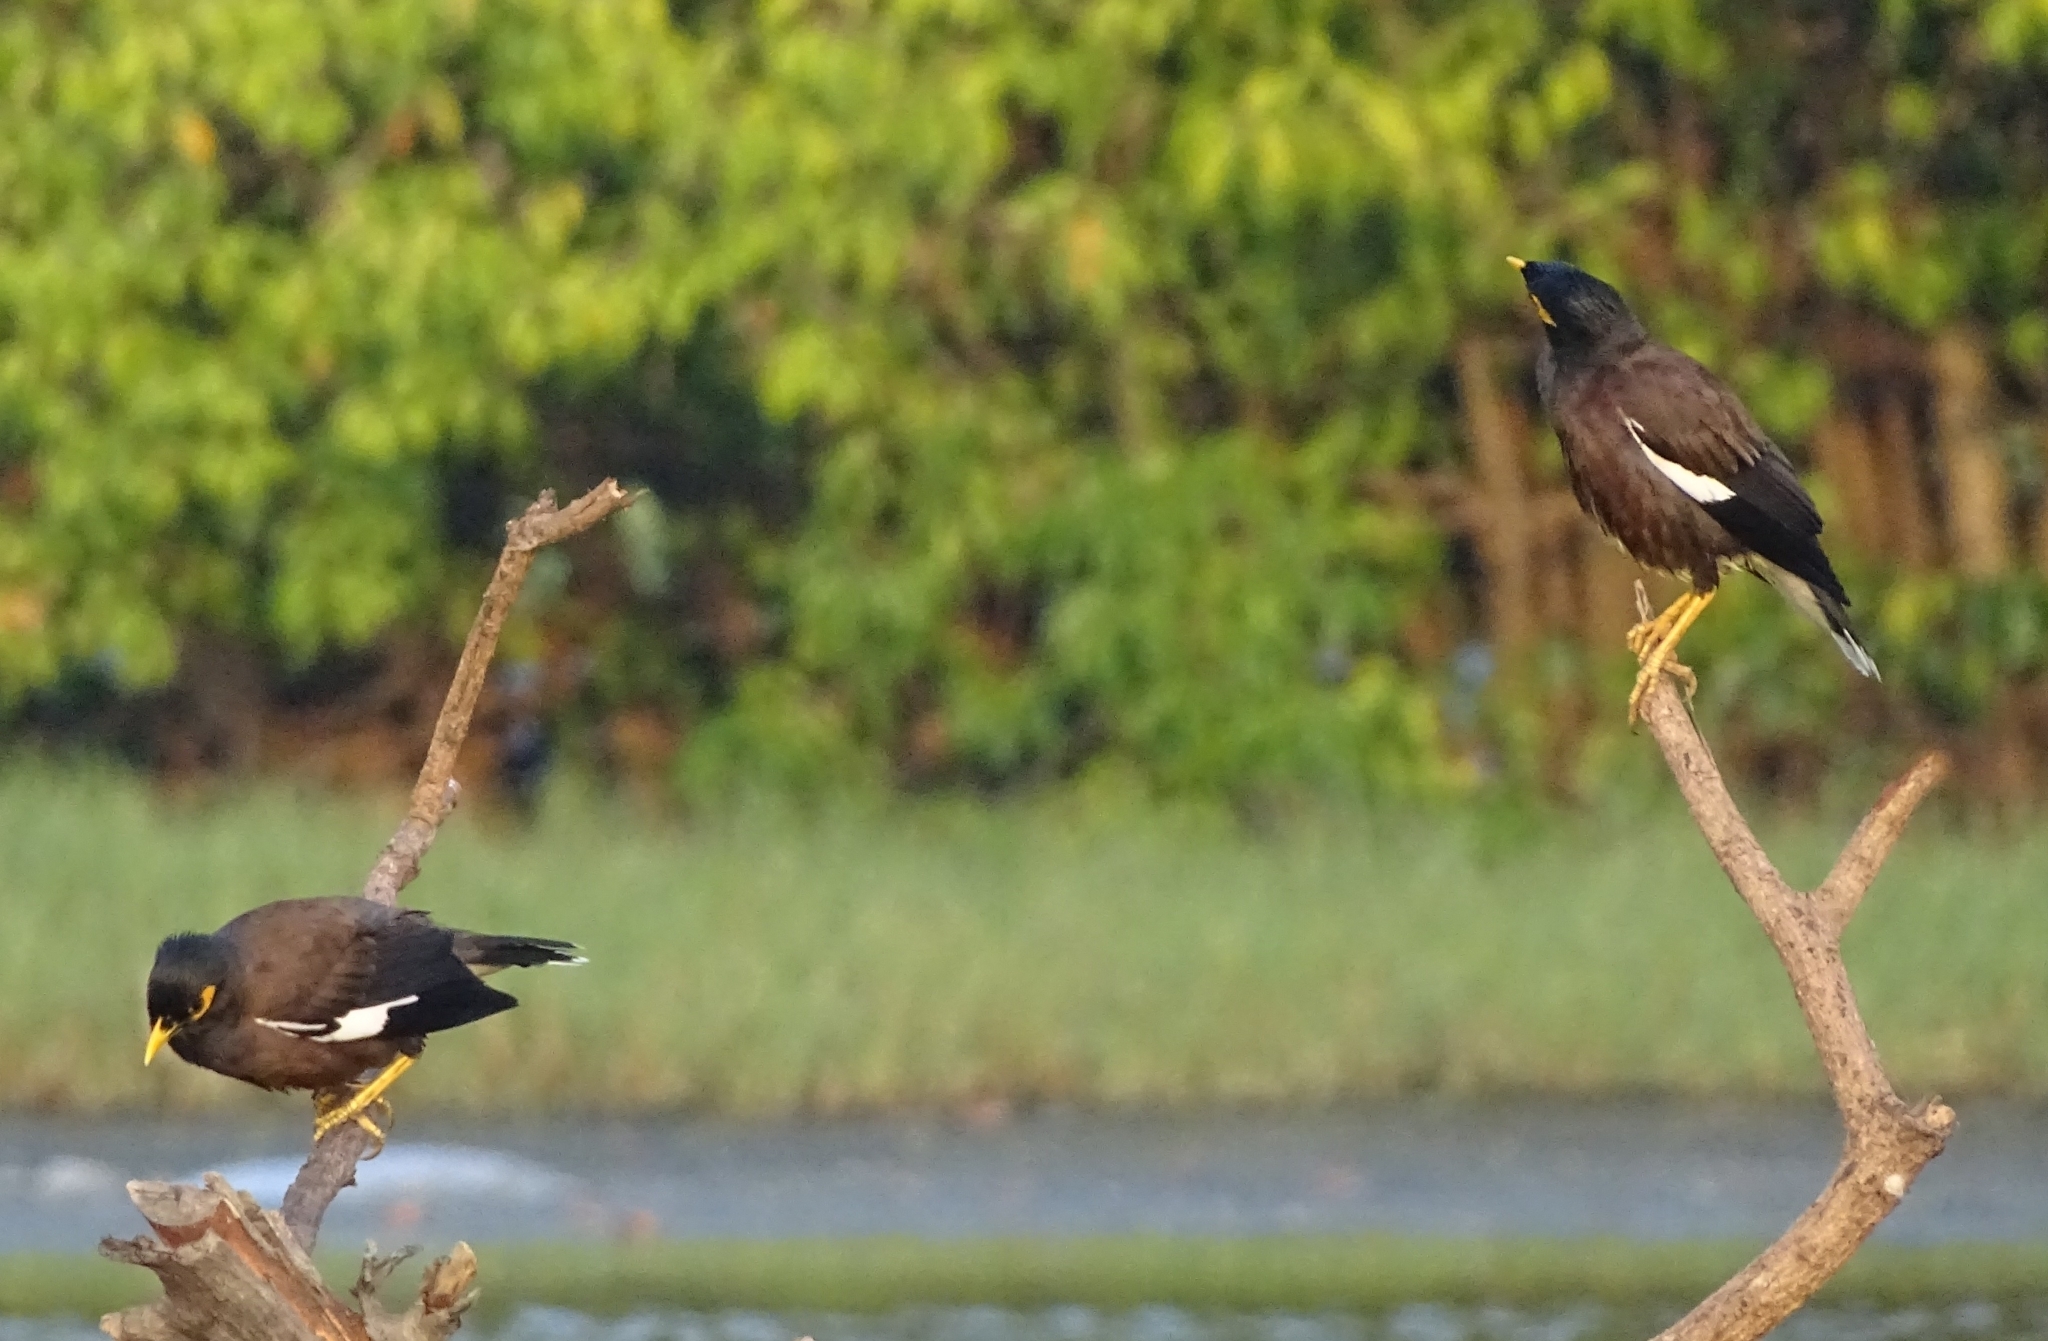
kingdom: Animalia
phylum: Chordata
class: Aves
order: Passeriformes
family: Sturnidae
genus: Acridotheres
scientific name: Acridotheres tristis
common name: Common myna
